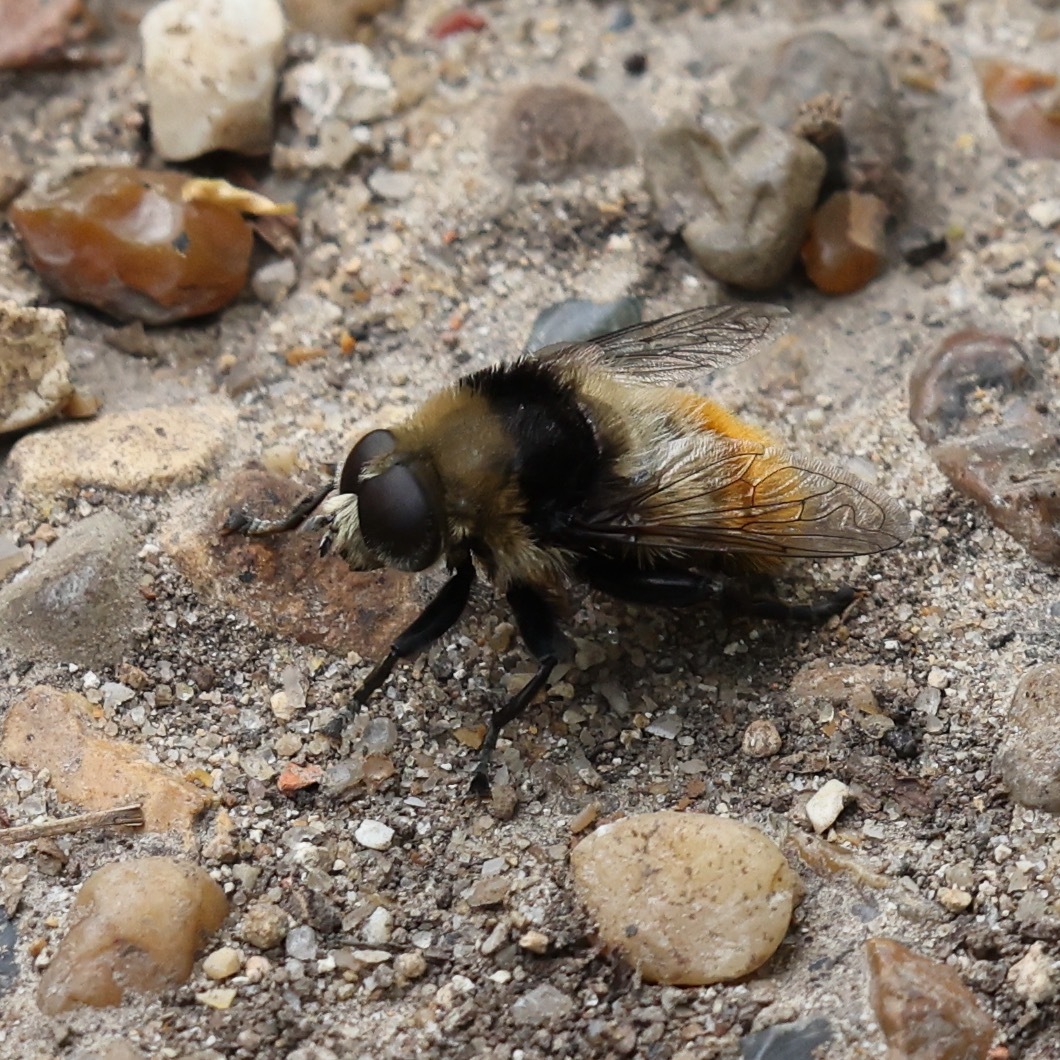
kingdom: Animalia
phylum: Arthropoda
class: Insecta
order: Diptera
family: Syrphidae
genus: Merodon
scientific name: Merodon equestris
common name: Greater bulb-fly
